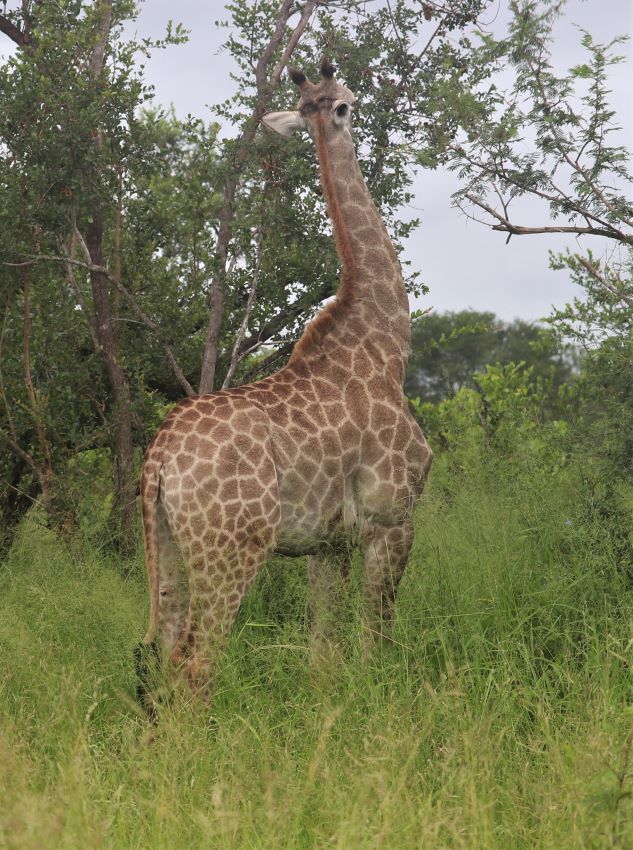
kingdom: Animalia
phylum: Chordata
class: Mammalia
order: Artiodactyla
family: Giraffidae
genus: Giraffa
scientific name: Giraffa giraffa
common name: Southern giraffe
